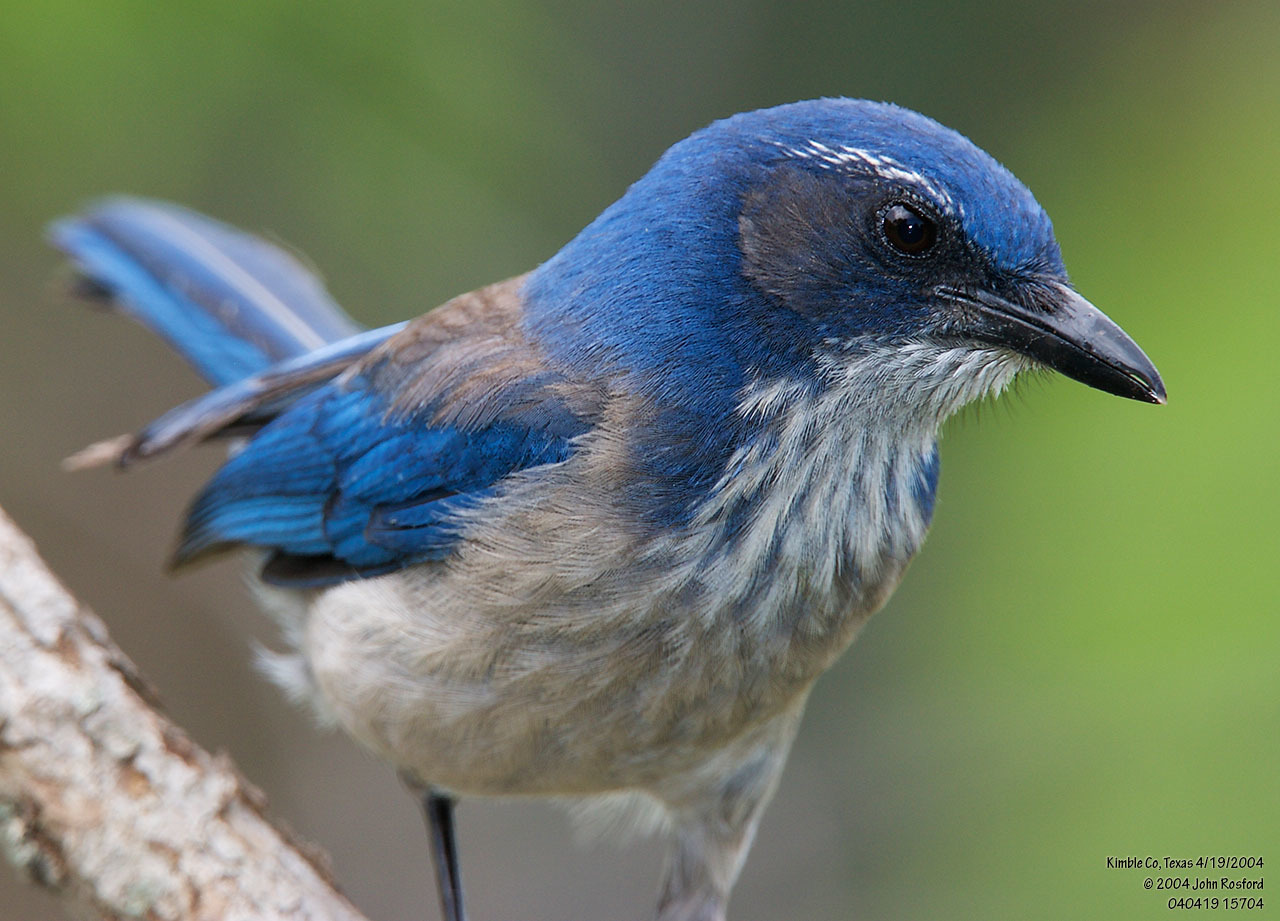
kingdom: Animalia
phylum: Chordata
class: Aves
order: Passeriformes
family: Corvidae
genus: Aphelocoma
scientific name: Aphelocoma woodhouseii
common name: Woodhouse's scrub-jay
